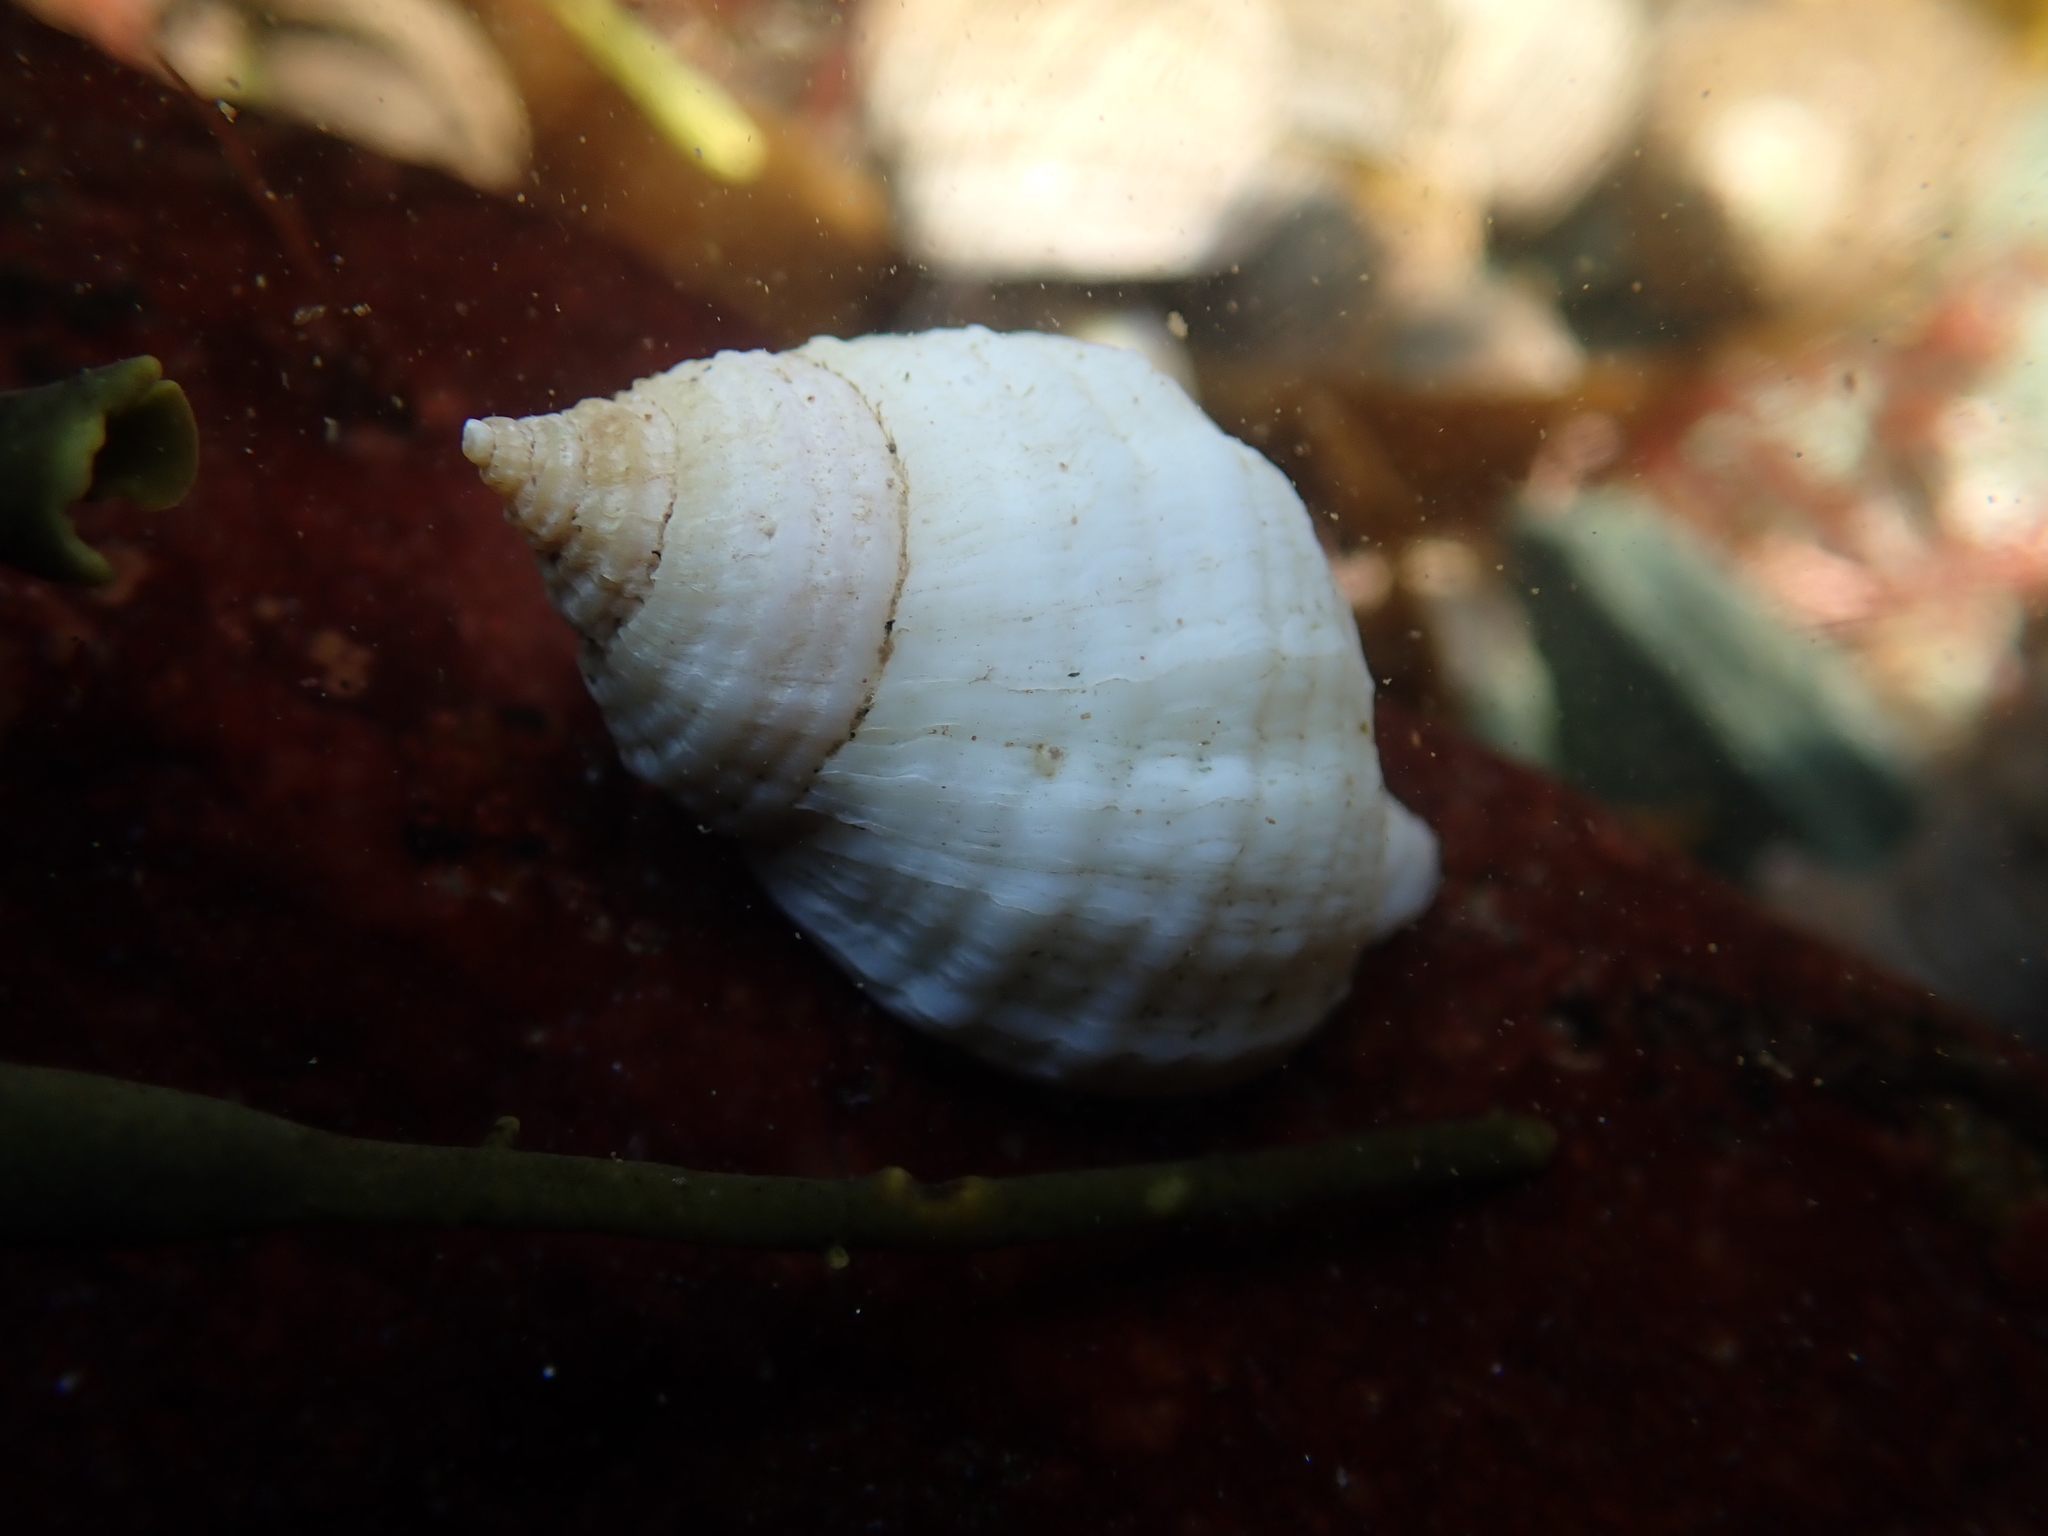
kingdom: Animalia
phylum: Mollusca
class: Gastropoda
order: Neogastropoda
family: Muricidae
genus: Nucella
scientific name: Nucella lapillus
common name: Dog whelk
